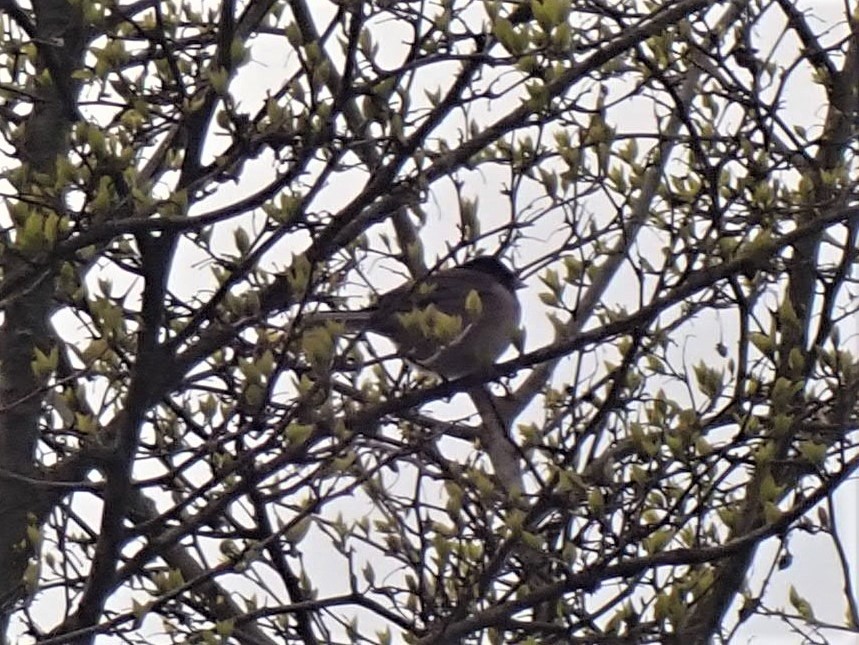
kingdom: Animalia
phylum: Chordata
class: Aves
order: Passeriformes
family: Passerellidae
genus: Junco
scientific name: Junco hyemalis
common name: Dark-eyed junco
